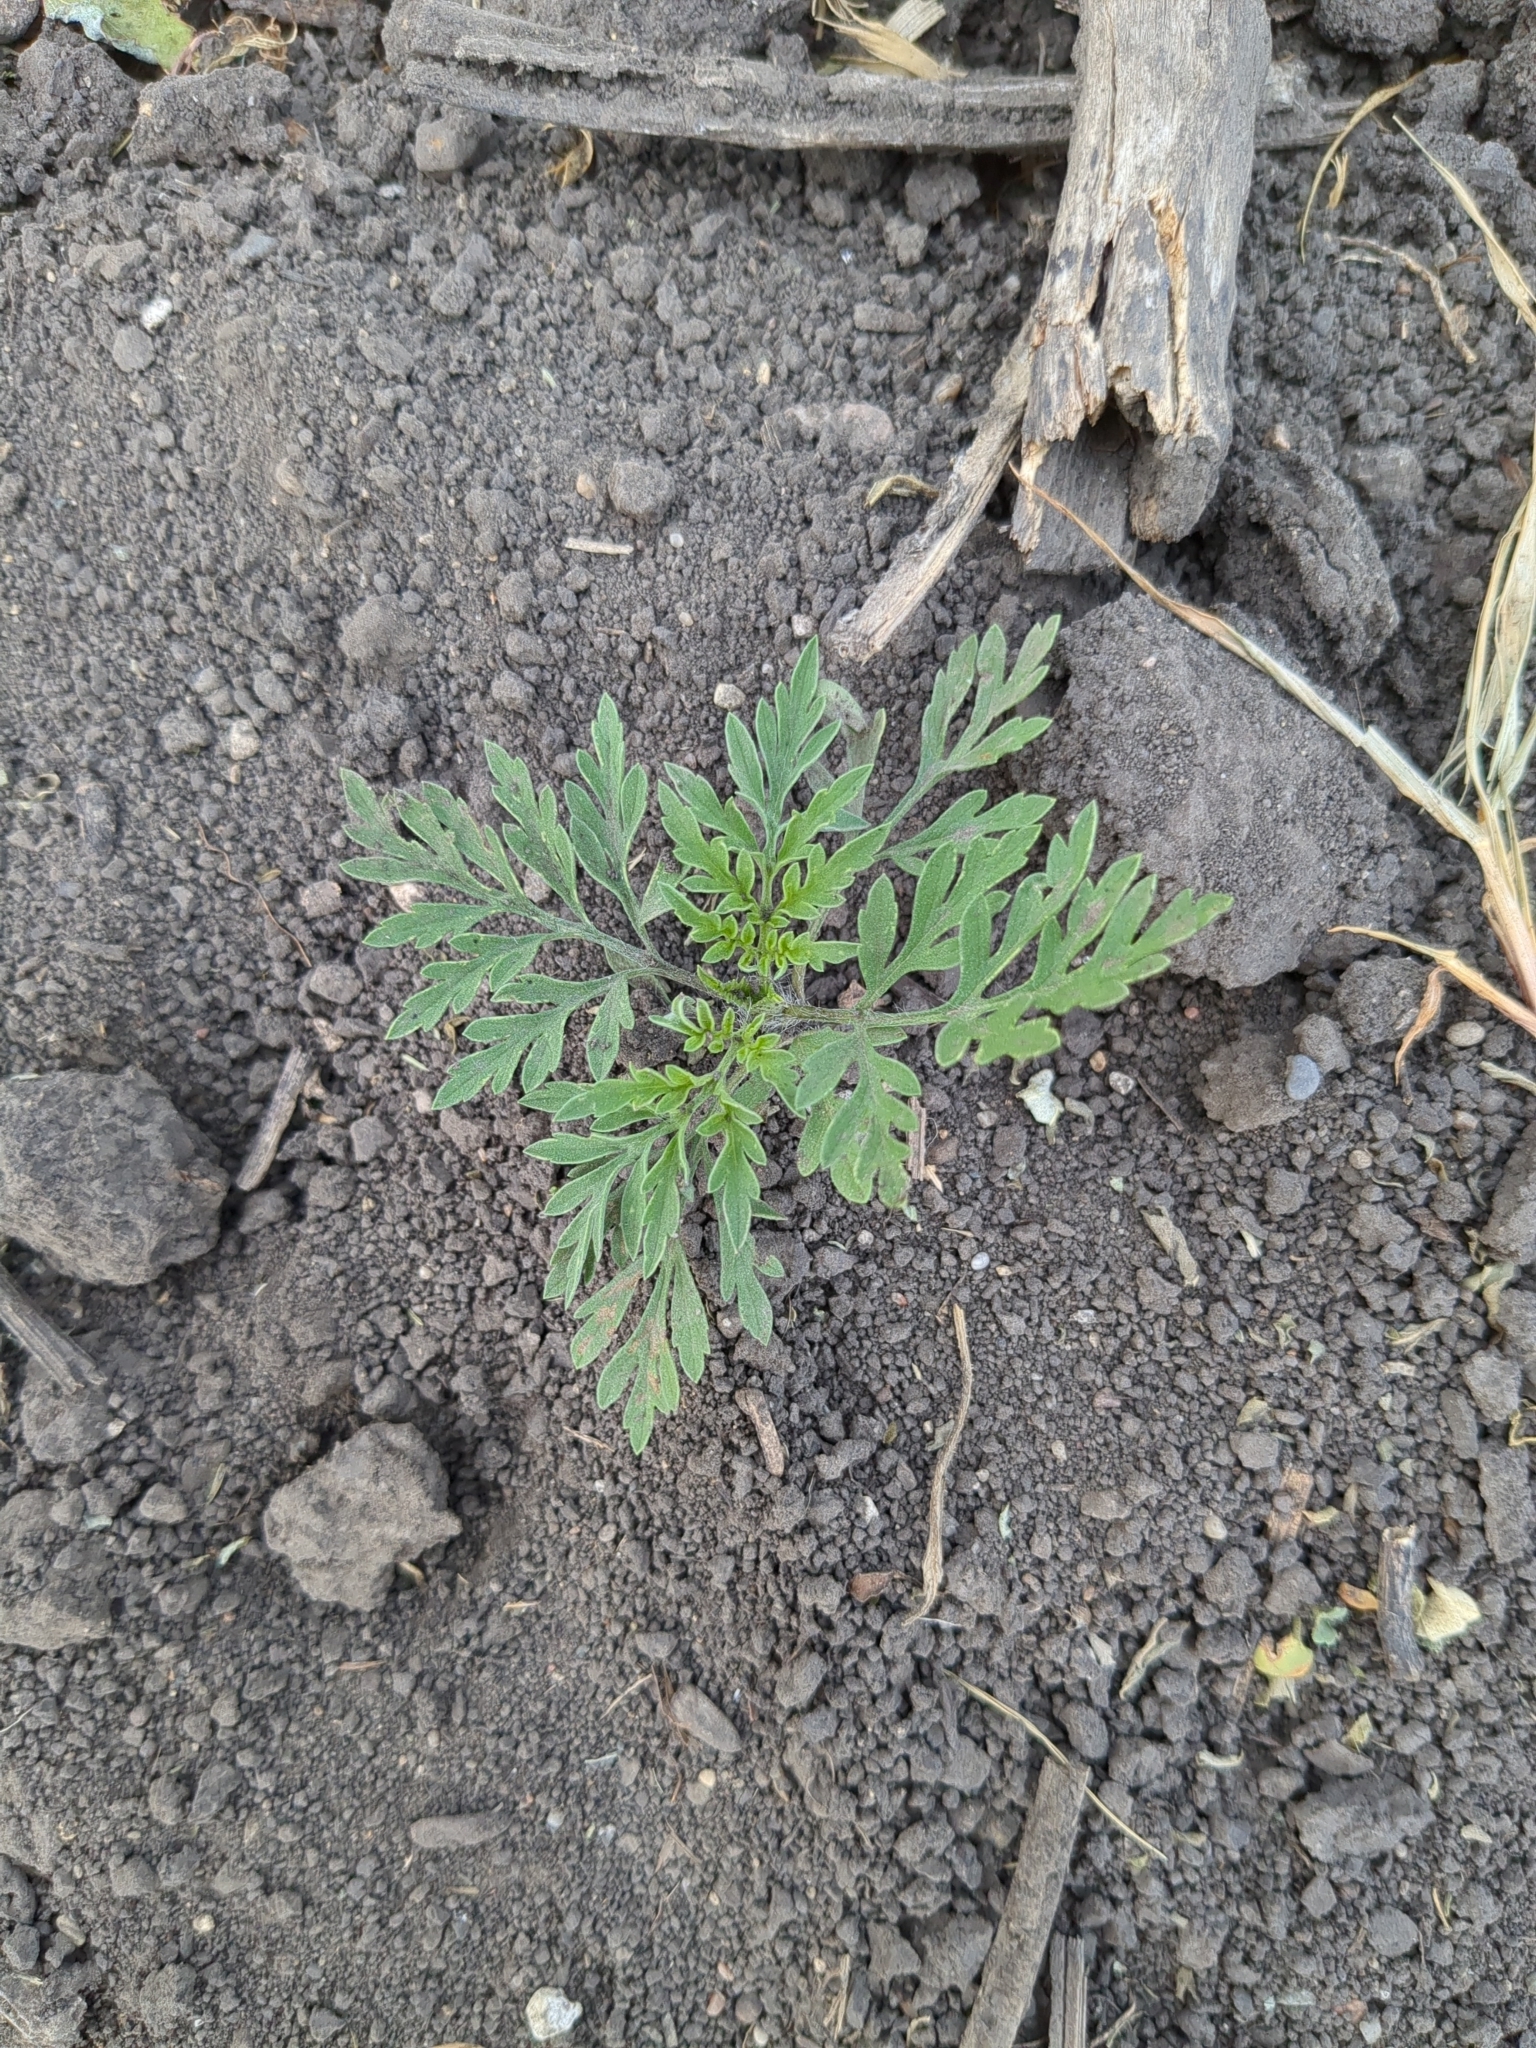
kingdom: Plantae
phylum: Tracheophyta
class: Magnoliopsida
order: Asterales
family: Asteraceae
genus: Ambrosia
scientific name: Ambrosia artemisiifolia
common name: Annual ragweed
